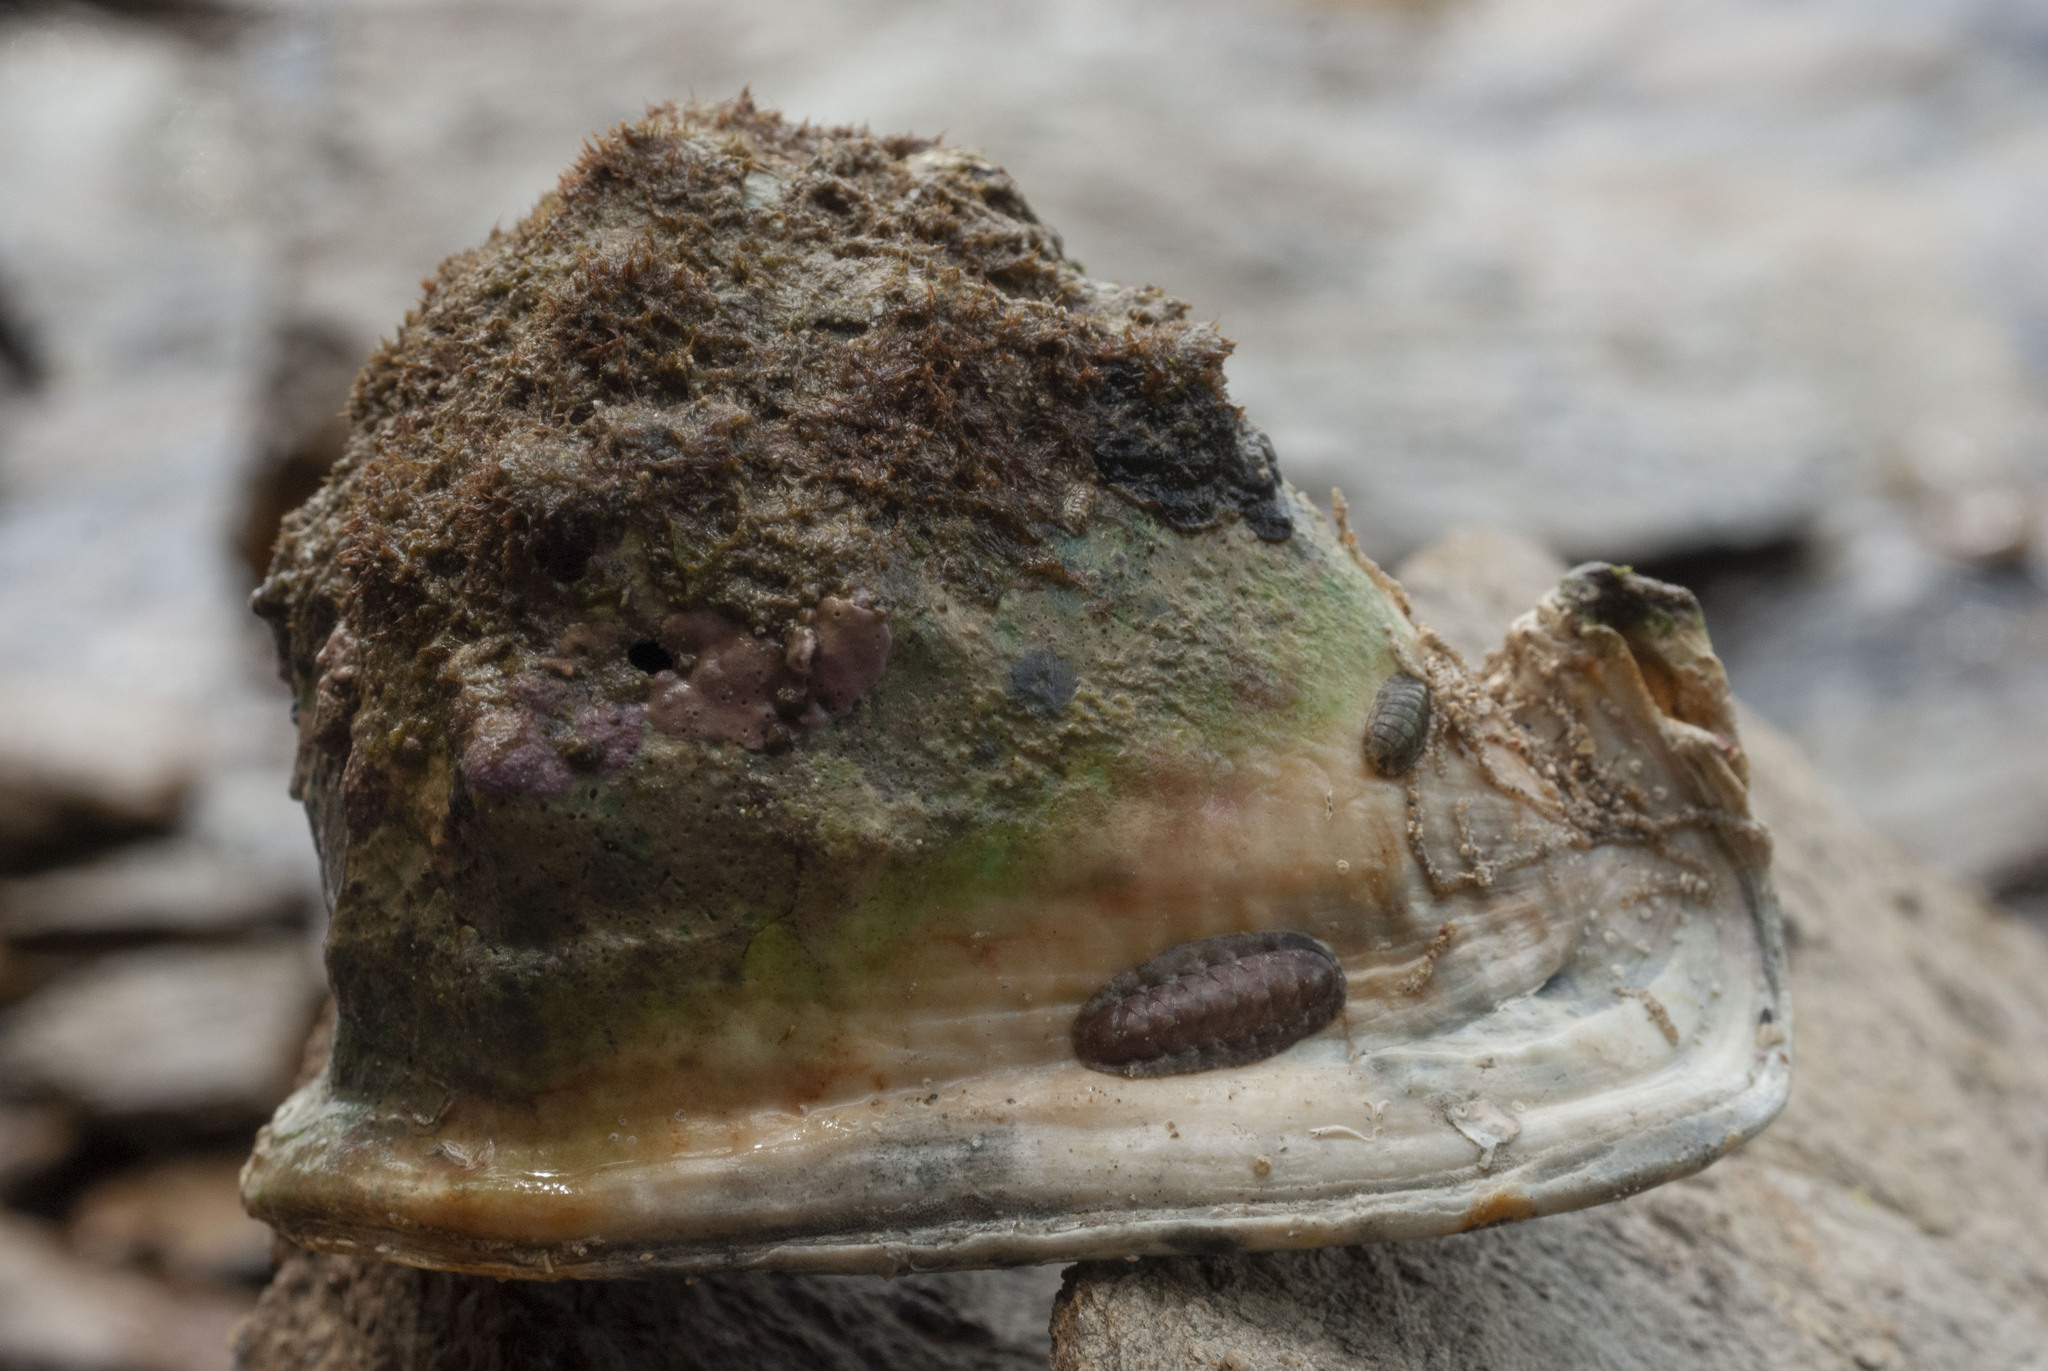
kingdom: Animalia
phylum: Mollusca
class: Gastropoda
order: Littorinimorpha
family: Cassidae
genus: Cassis
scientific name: Cassis madagascariensis
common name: Cameo helmet
